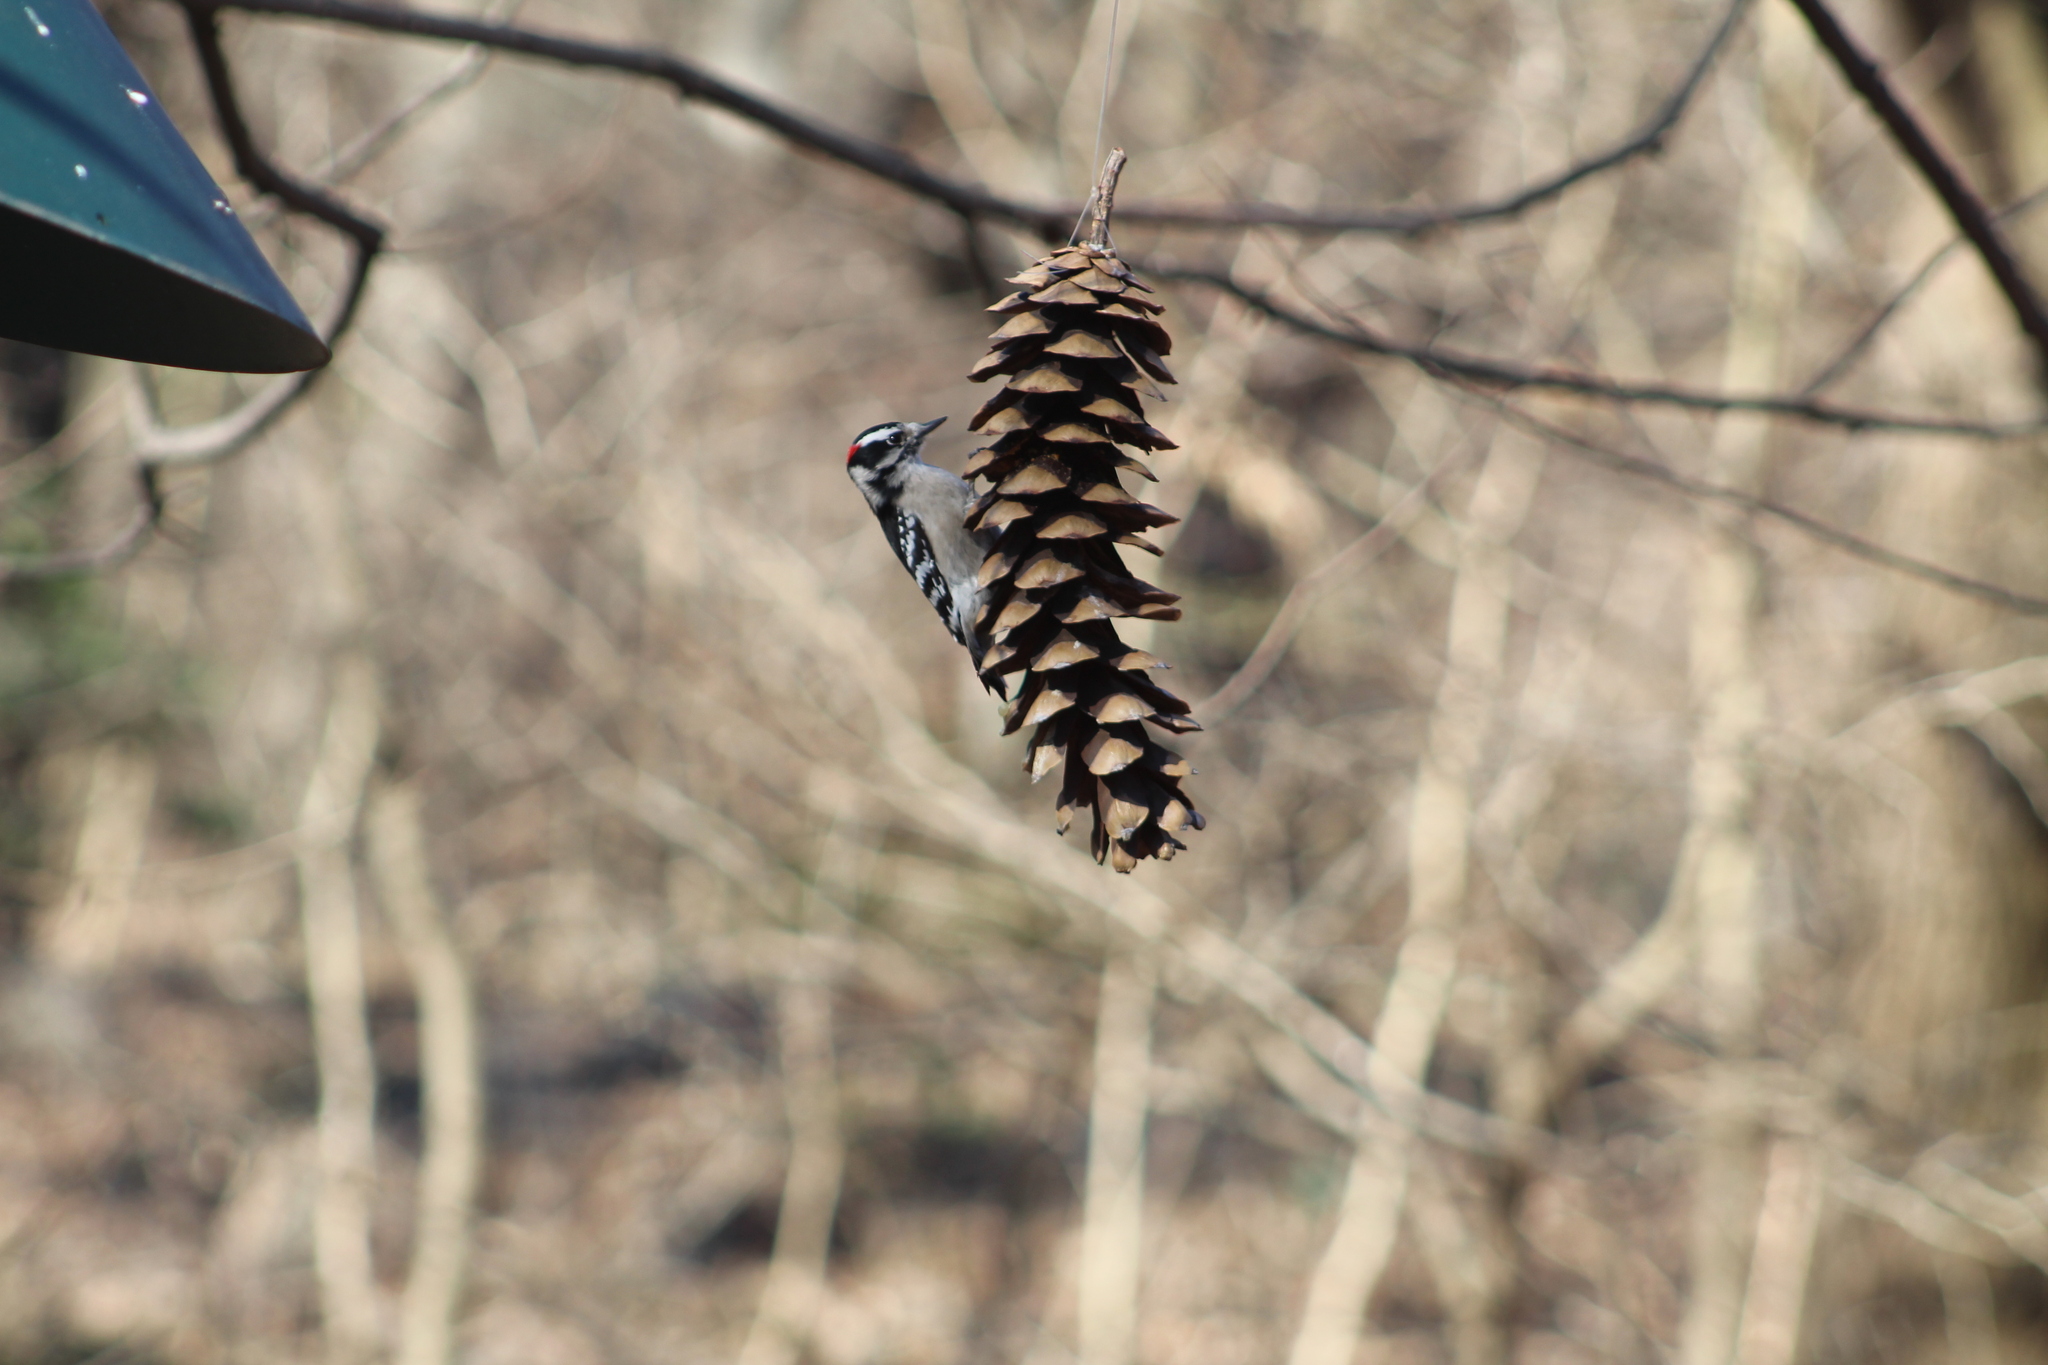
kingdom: Animalia
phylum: Chordata
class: Aves
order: Piciformes
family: Picidae
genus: Dryobates
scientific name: Dryobates pubescens
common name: Downy woodpecker
